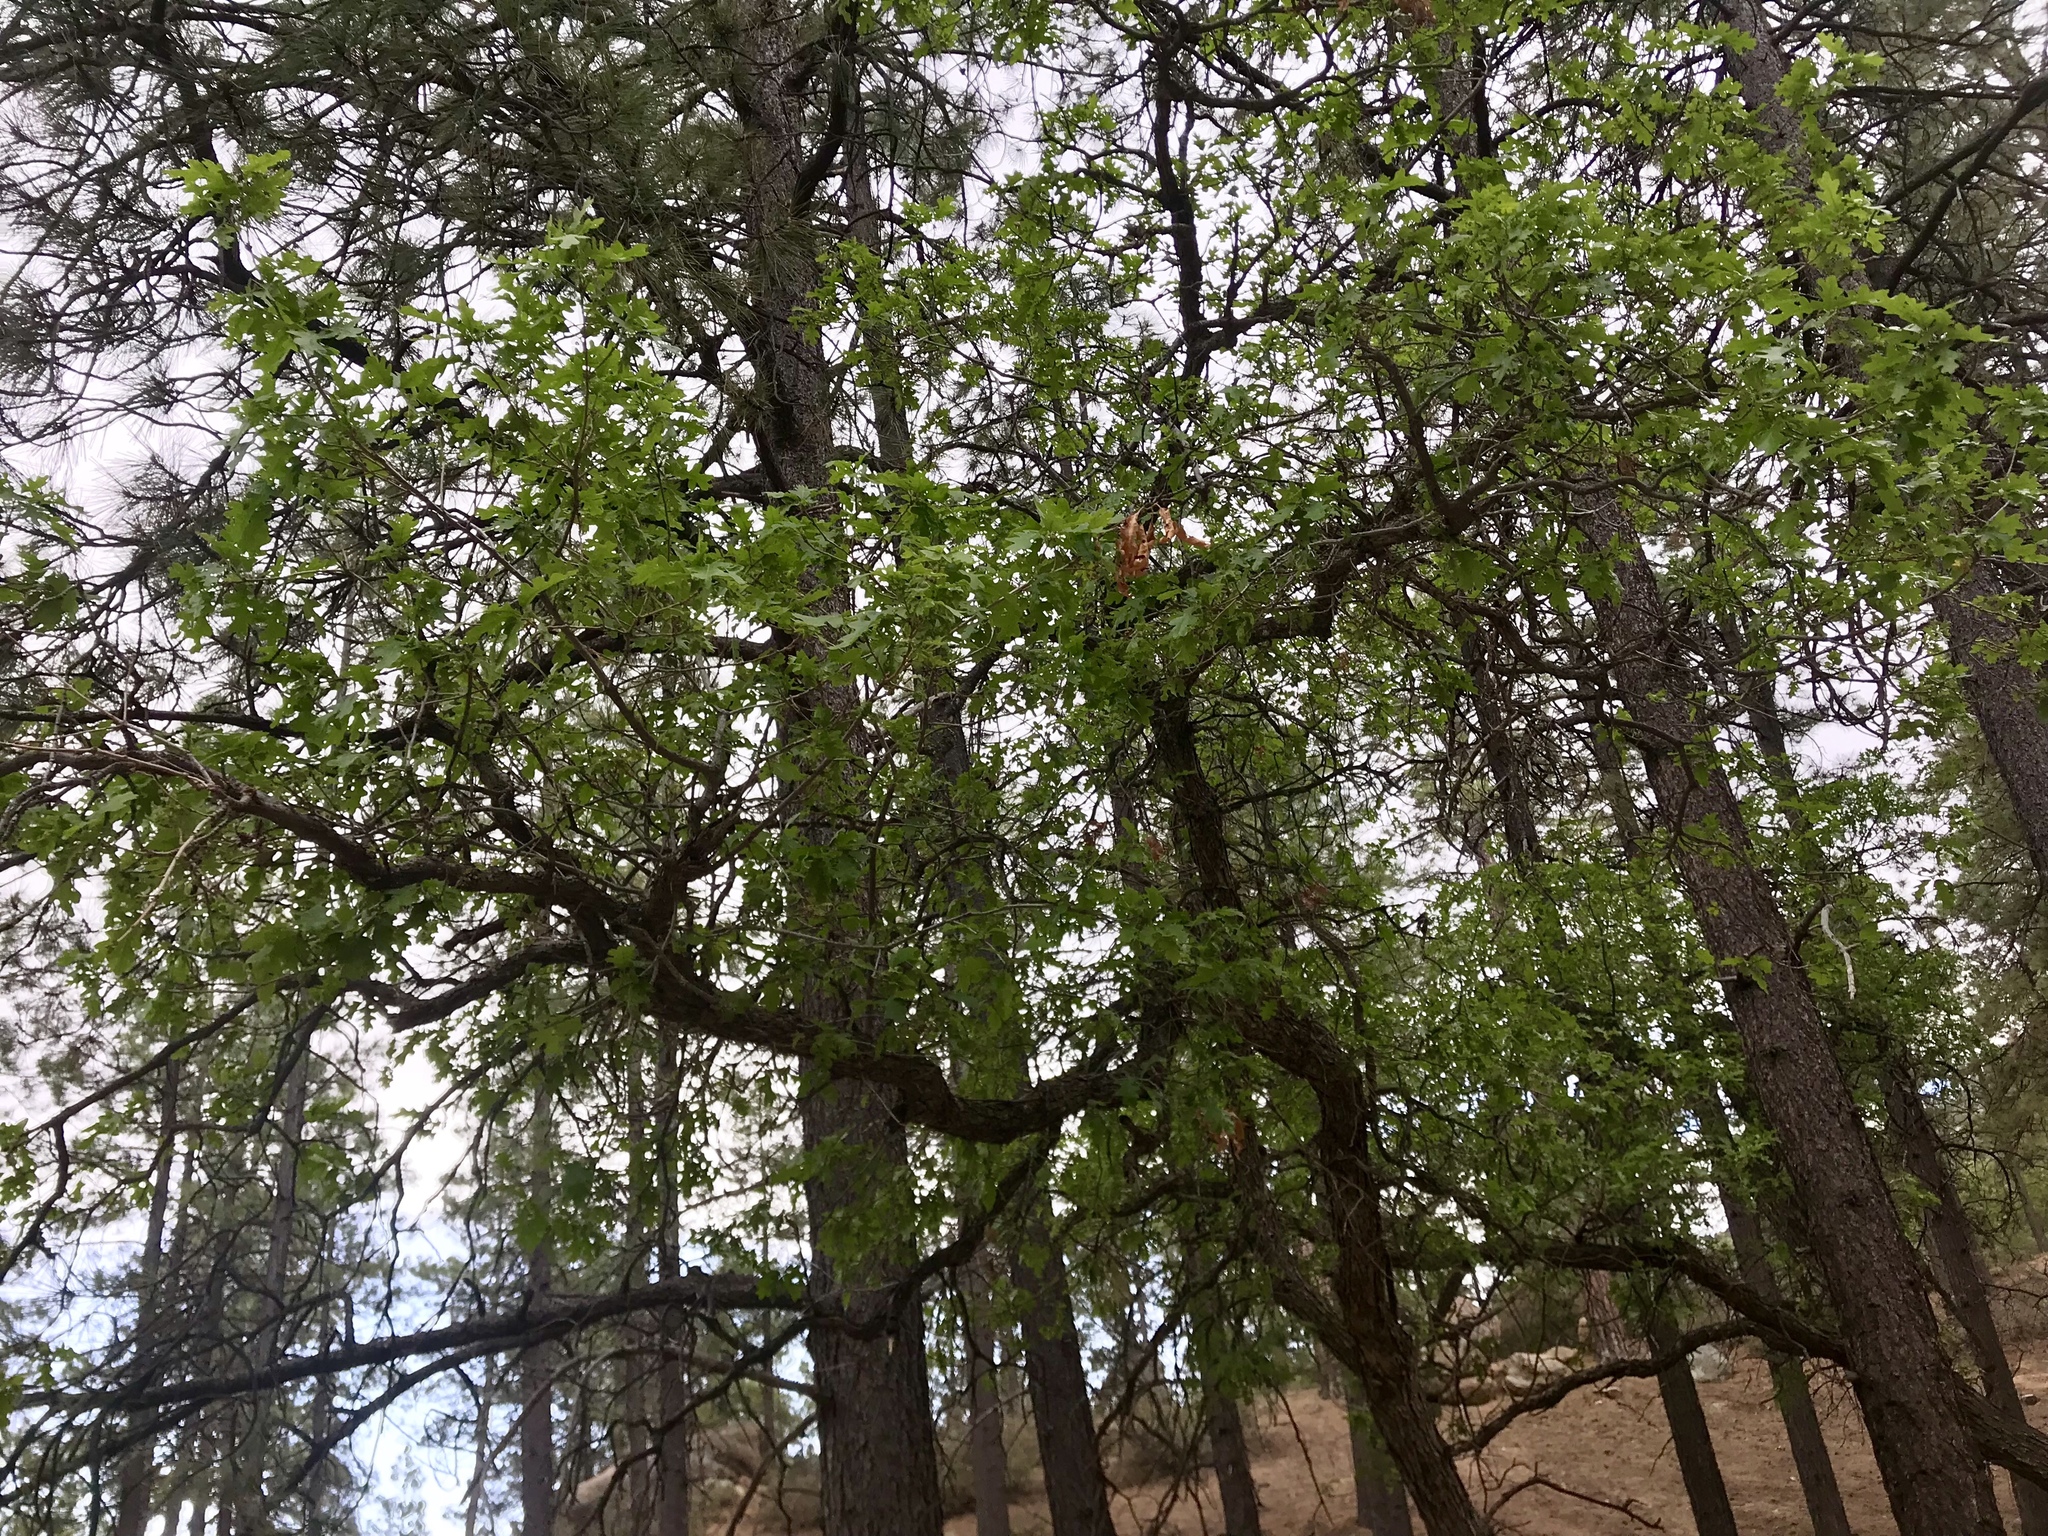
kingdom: Plantae
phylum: Tracheophyta
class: Magnoliopsida
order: Fagales
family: Fagaceae
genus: Quercus
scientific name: Quercus gambelii
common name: Gambel oak
